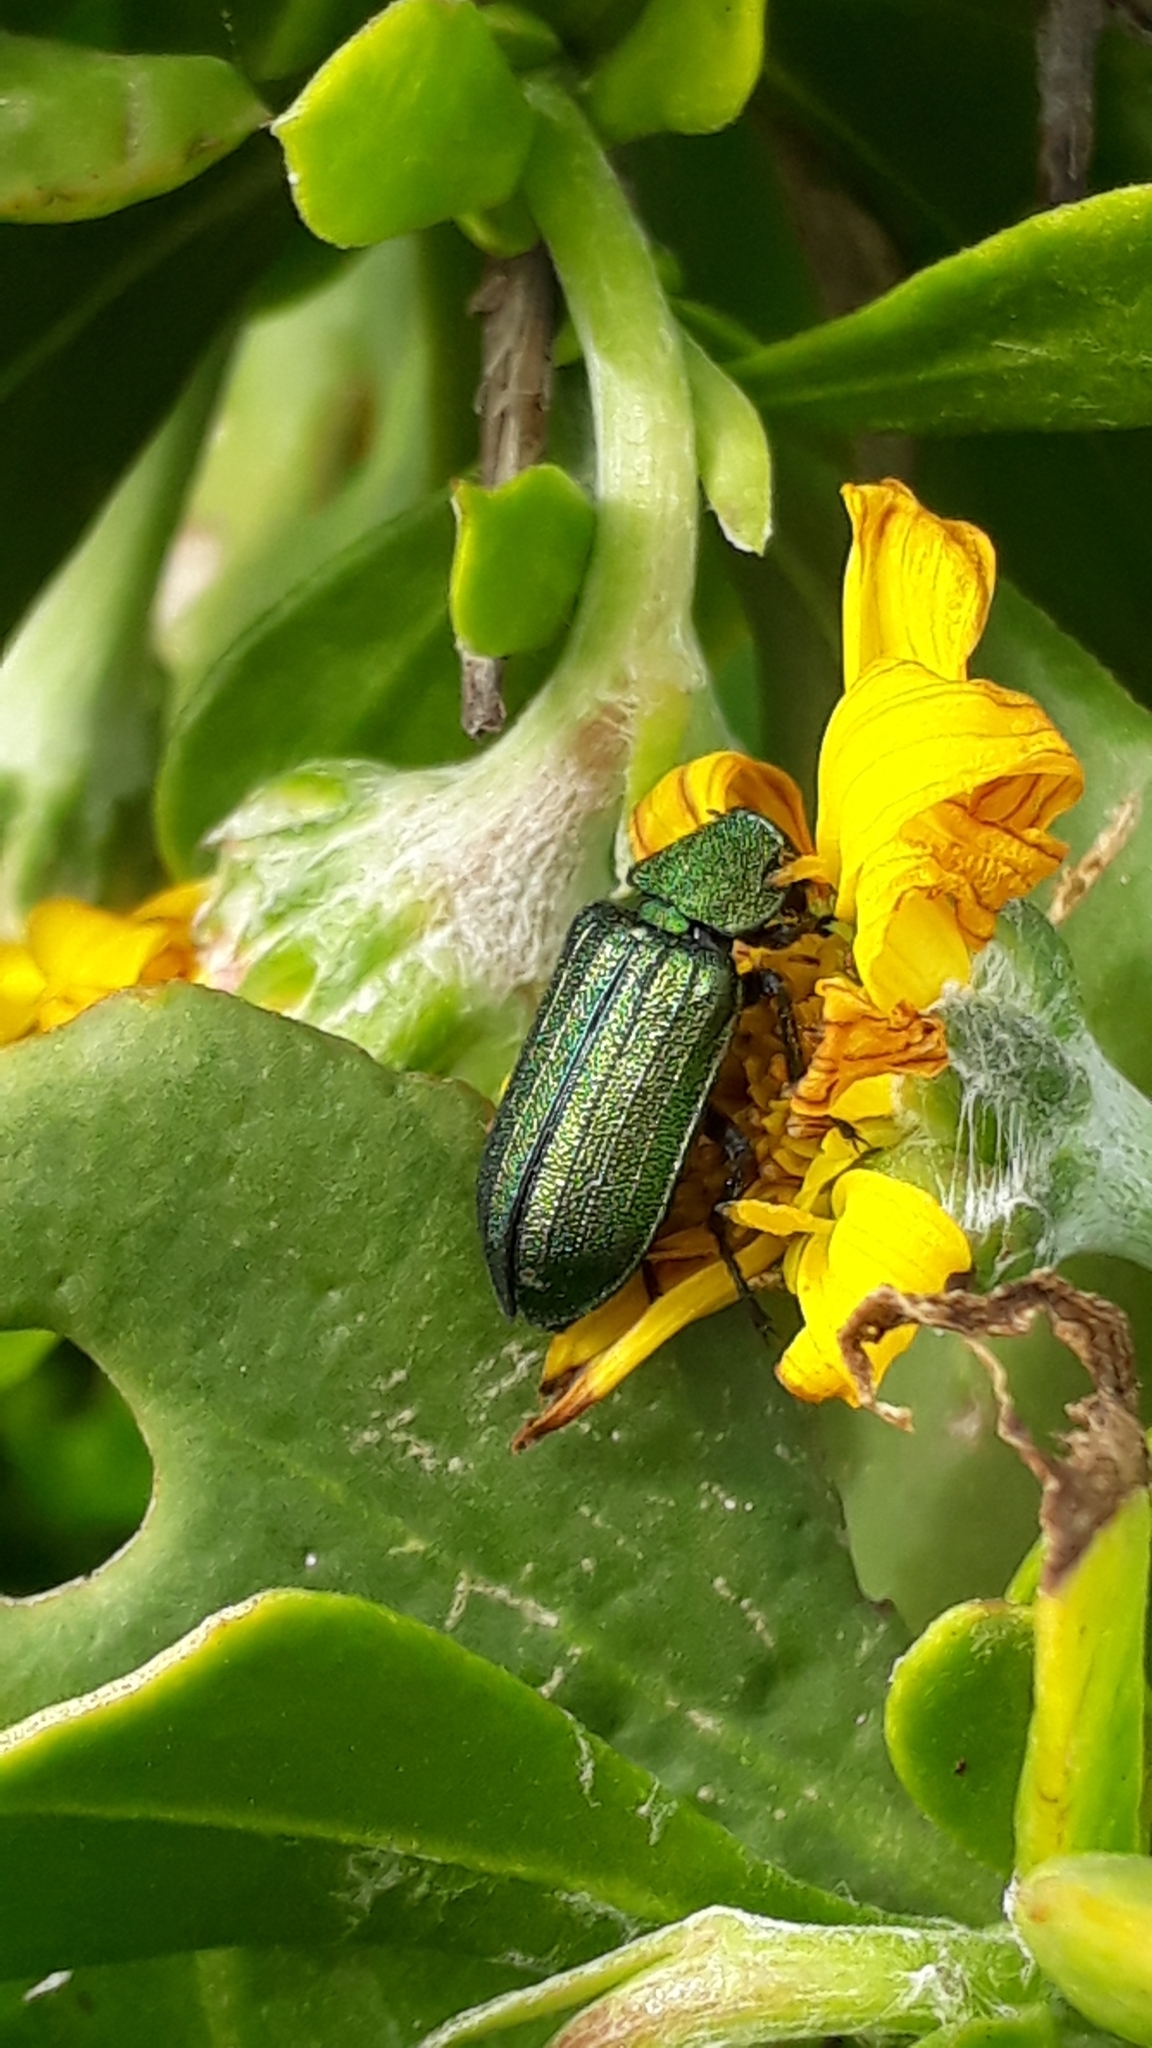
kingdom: Animalia
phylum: Arthropoda
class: Insecta
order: Coleoptera
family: Melyridae
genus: Melyris
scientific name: Melyris viridis
